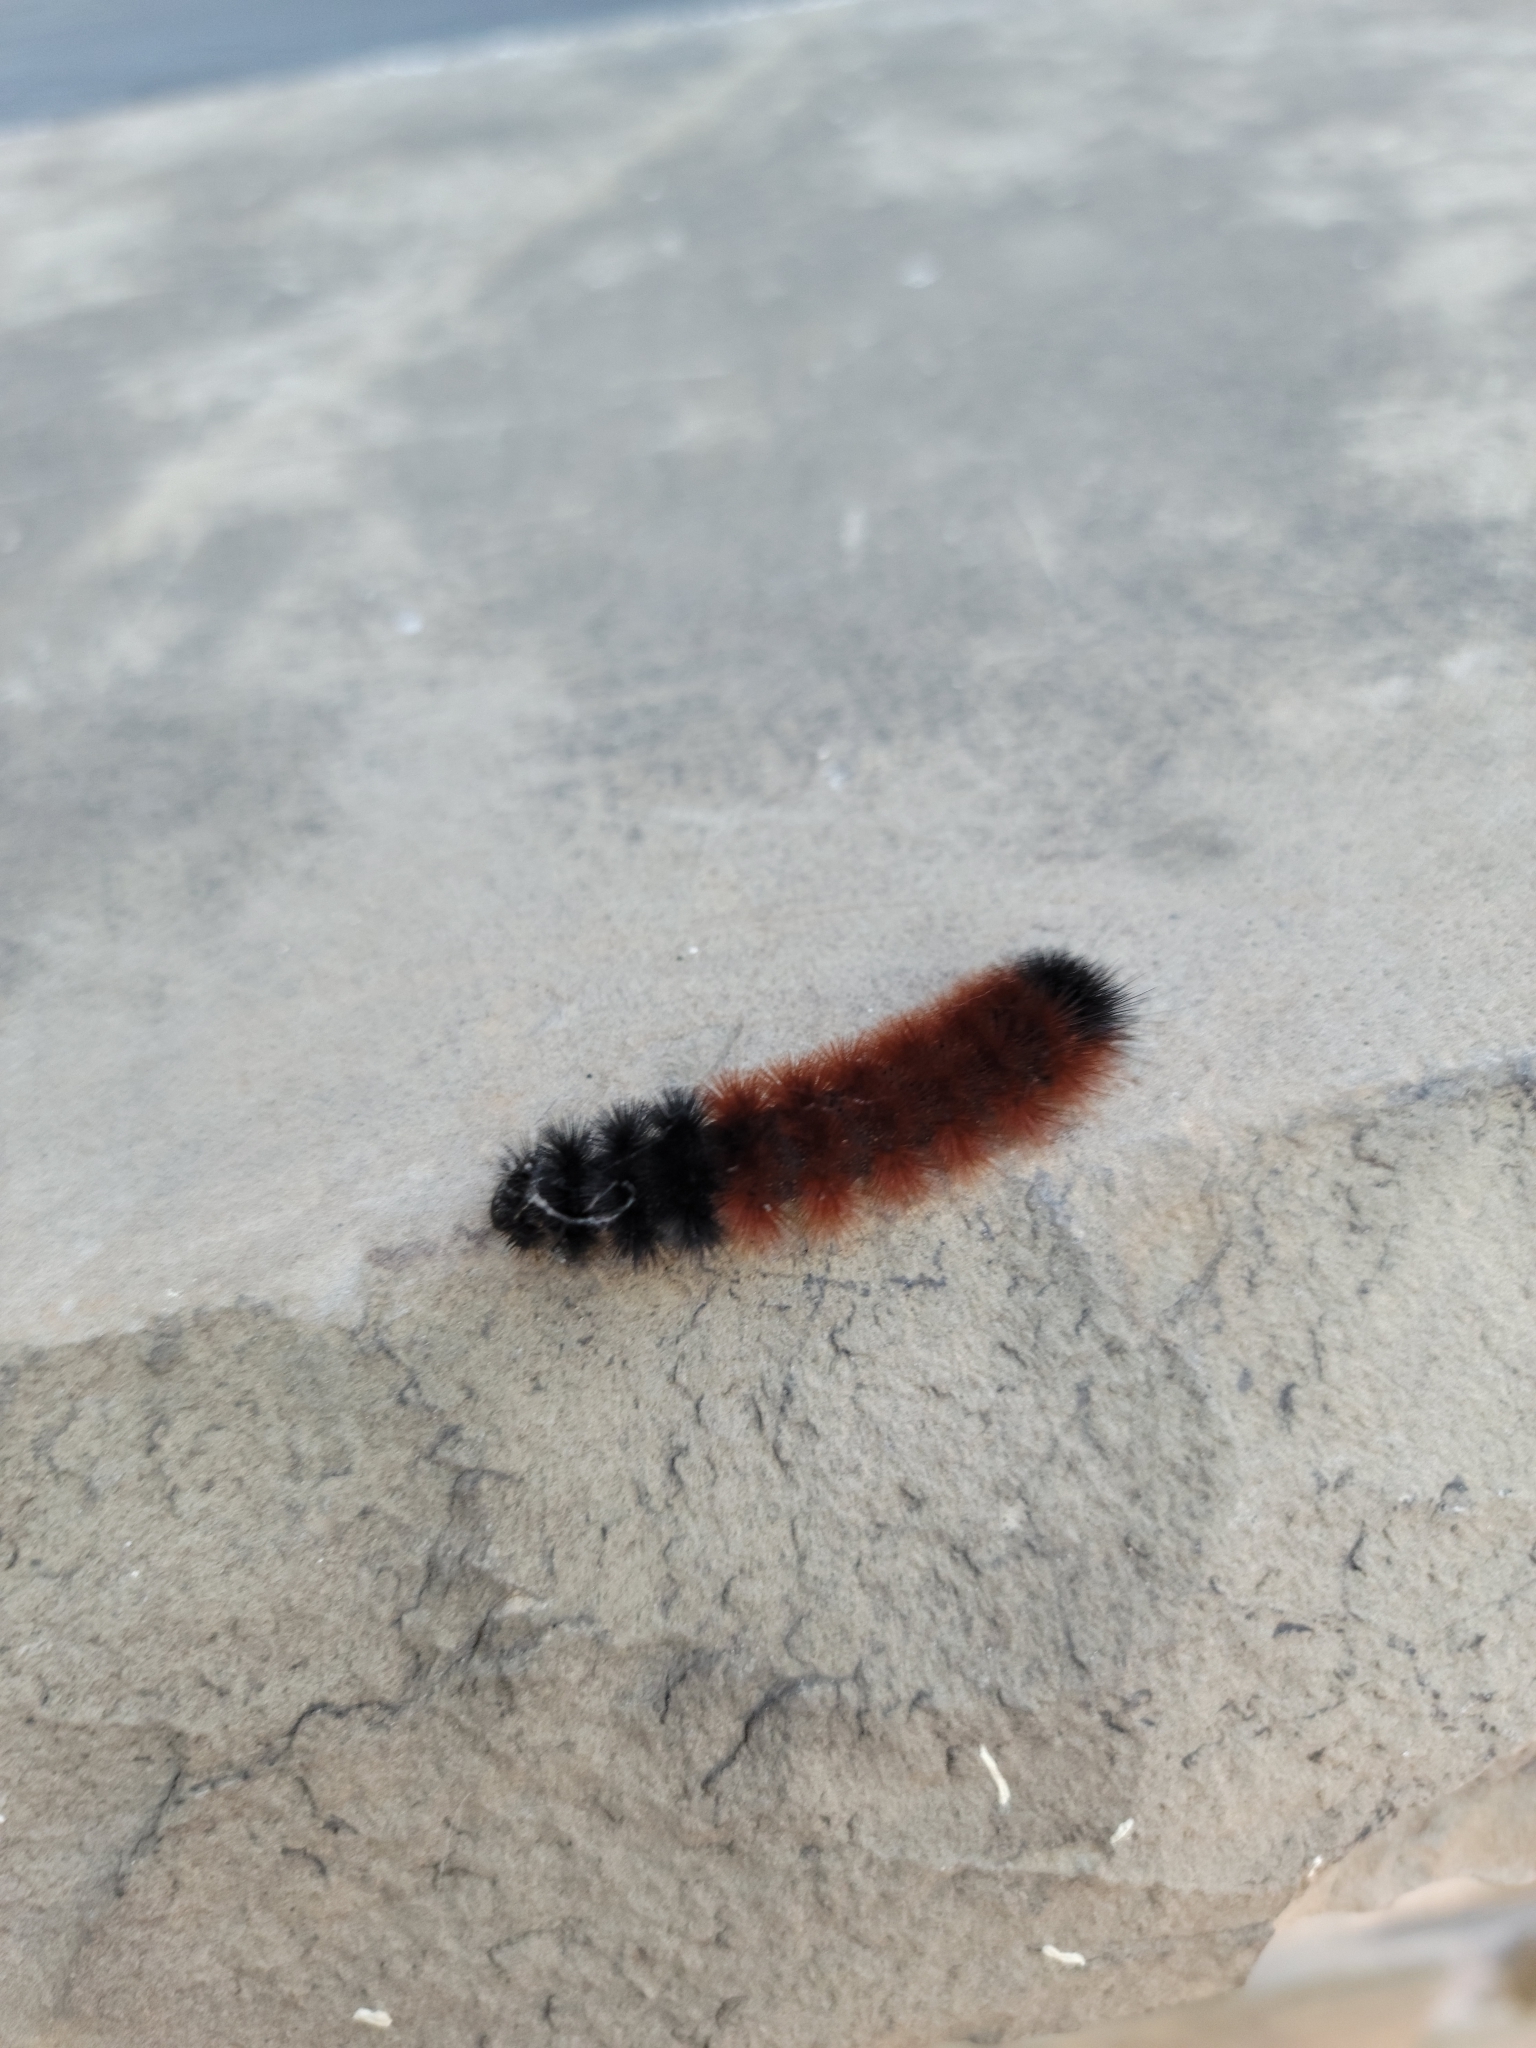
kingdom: Animalia
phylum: Arthropoda
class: Insecta
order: Lepidoptera
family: Erebidae
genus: Pyrrharctia
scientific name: Pyrrharctia isabella
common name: Isabella tiger moth
